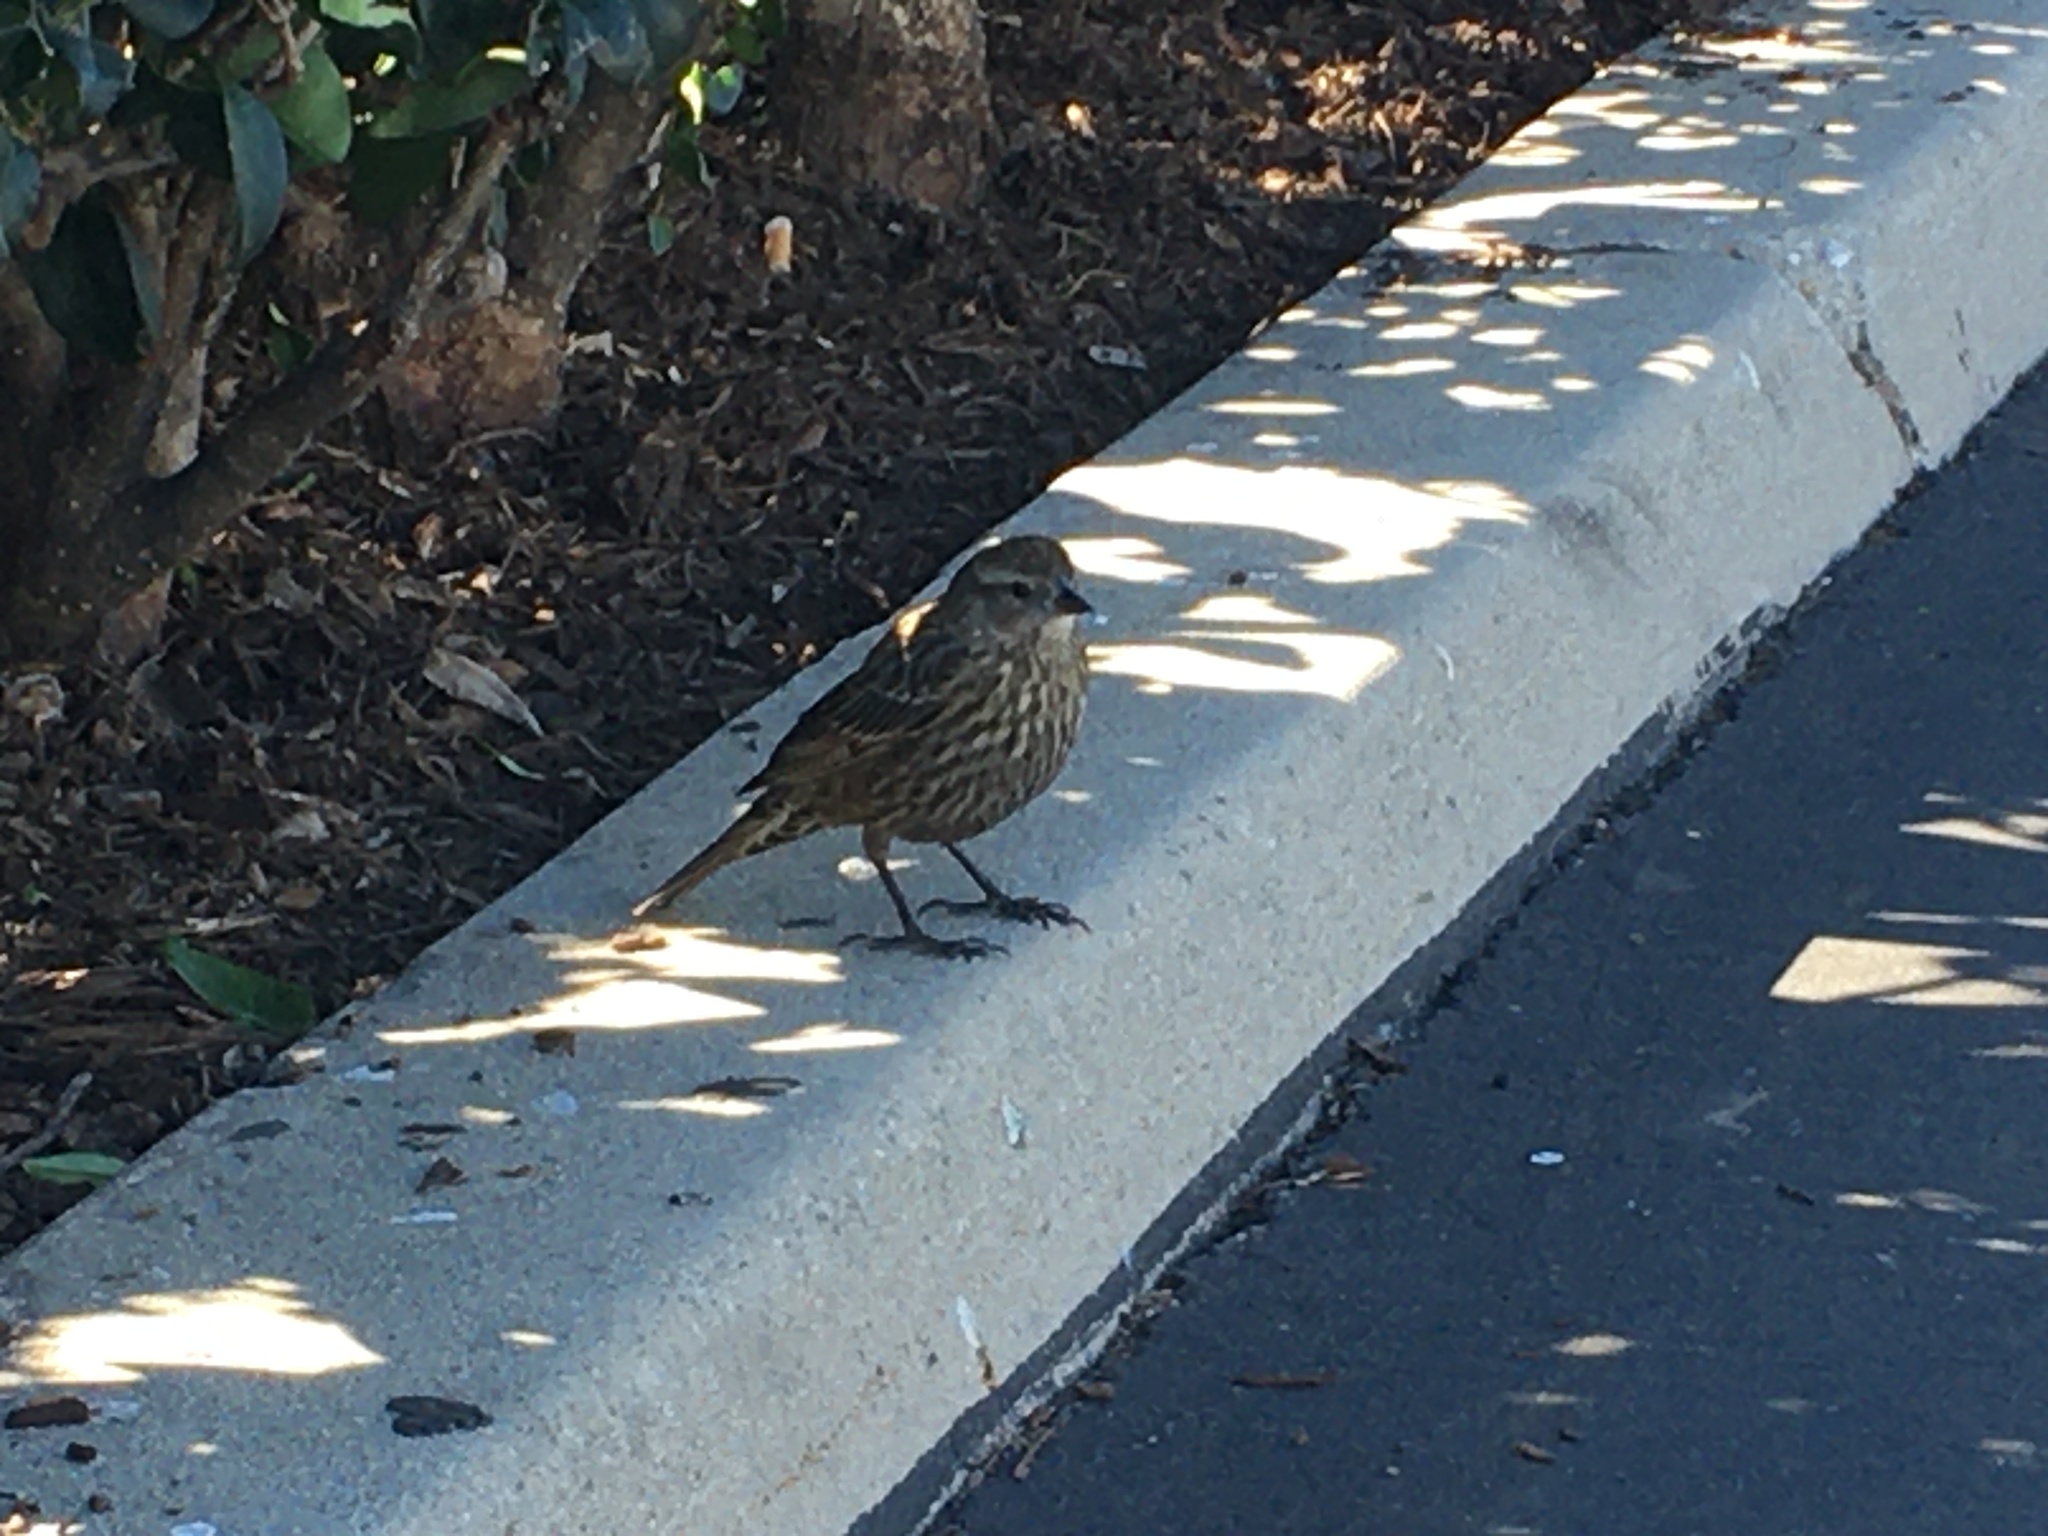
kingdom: Animalia
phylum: Chordata
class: Aves
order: Passeriformes
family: Icteridae
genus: Agelaius
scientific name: Agelaius phoeniceus
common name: Red-winged blackbird
